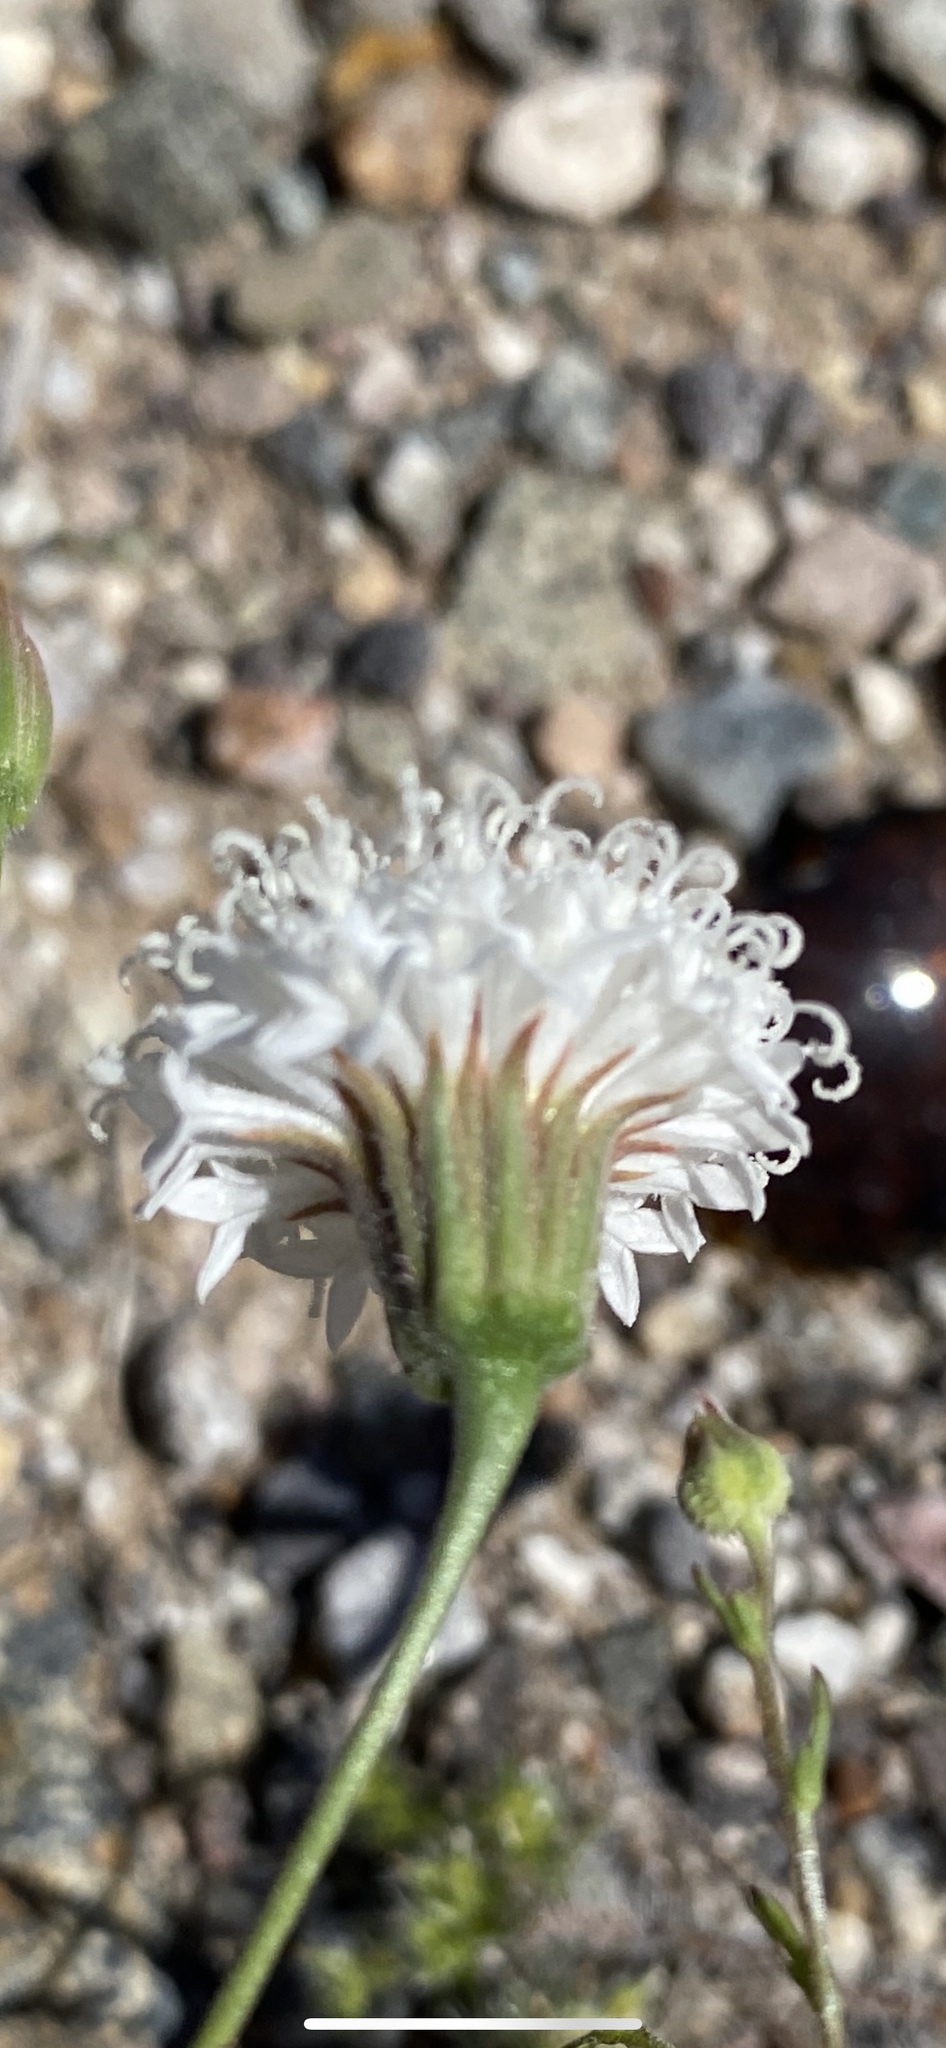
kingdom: Plantae
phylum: Tracheophyta
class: Magnoliopsida
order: Asterales
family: Asteraceae
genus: Chaenactis
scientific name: Chaenactis carphoclinia
